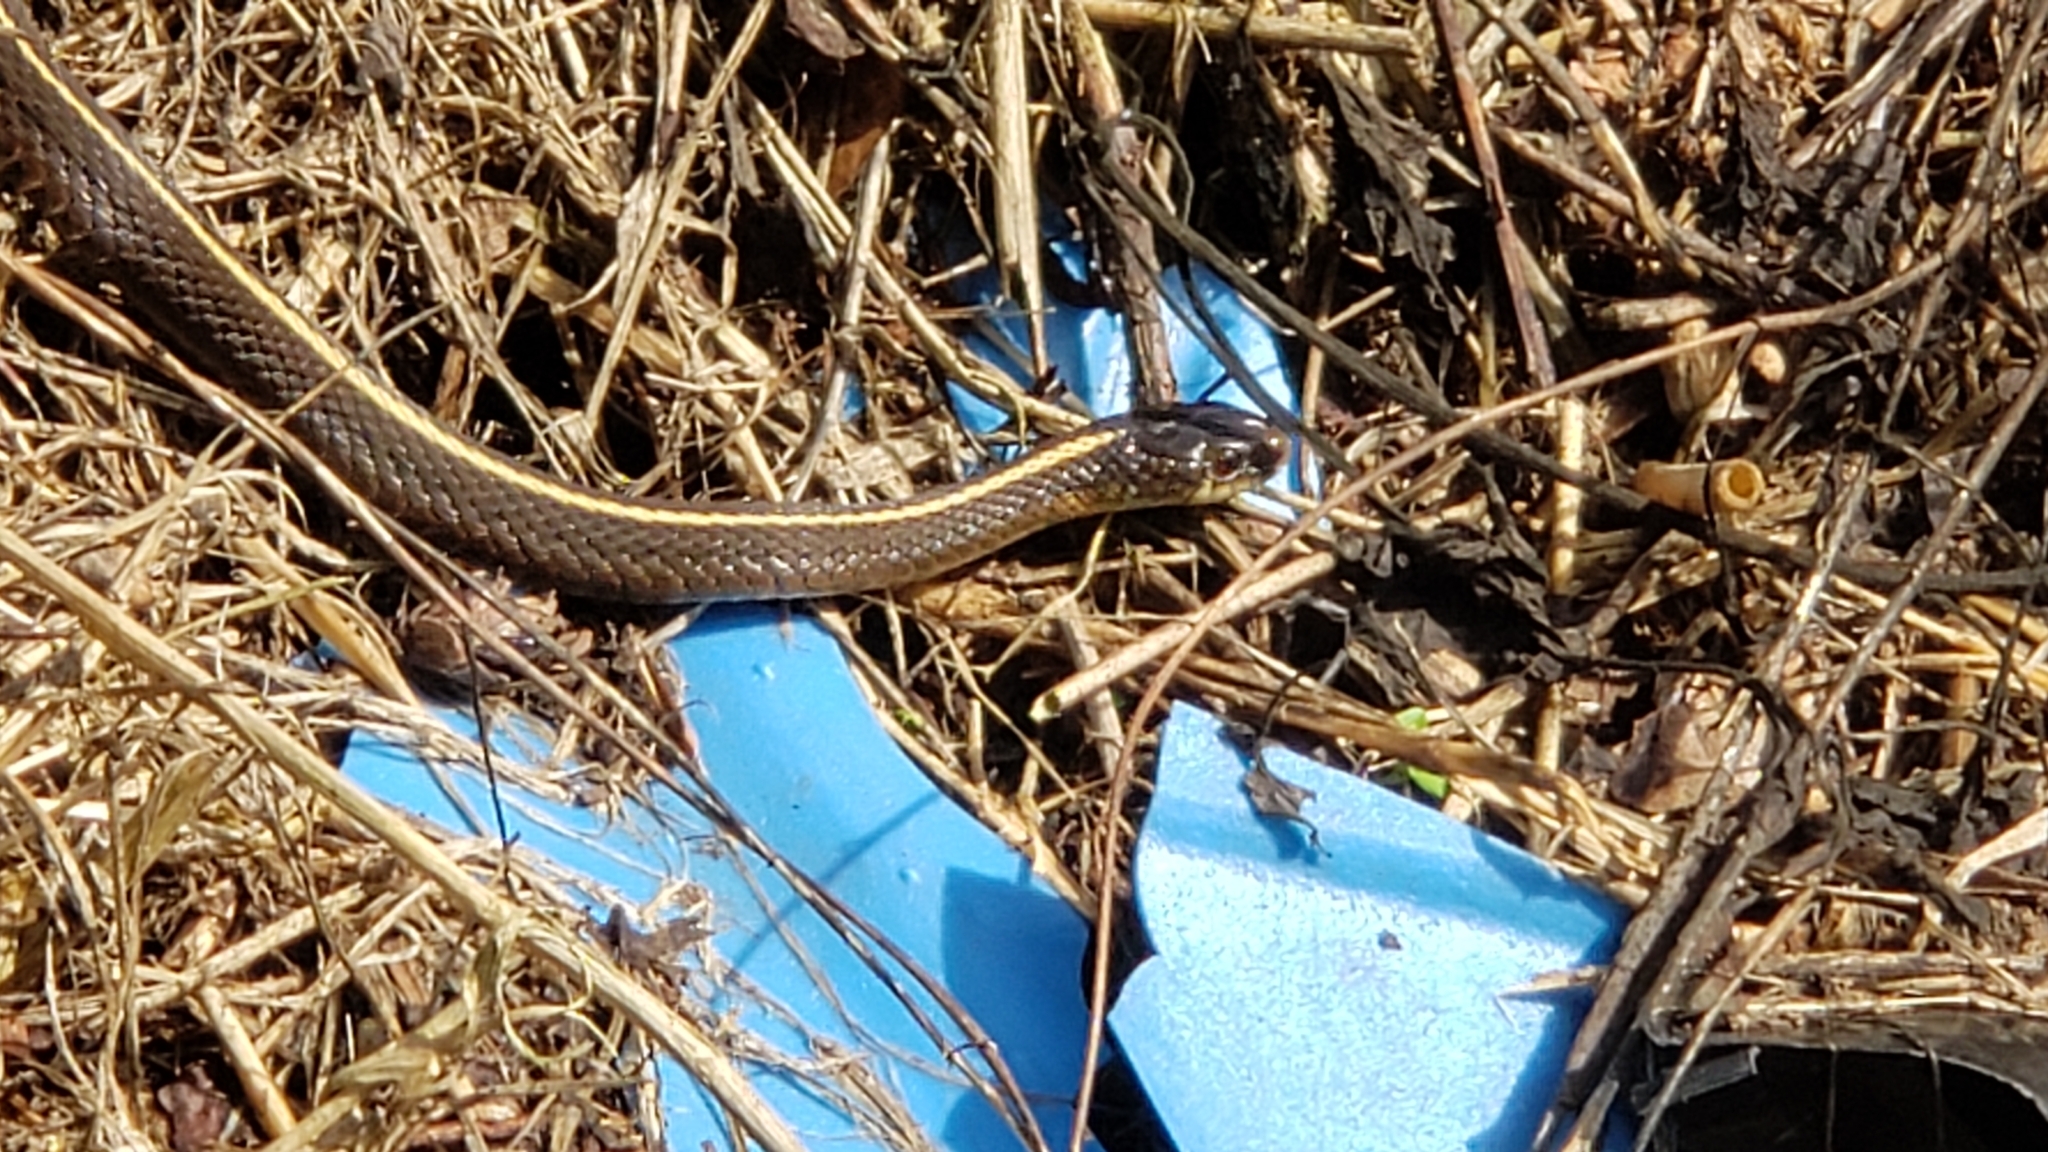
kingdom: Animalia
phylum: Chordata
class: Squamata
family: Colubridae
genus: Thamnophis
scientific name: Thamnophis ordinoides
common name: Northwestern garter snake
